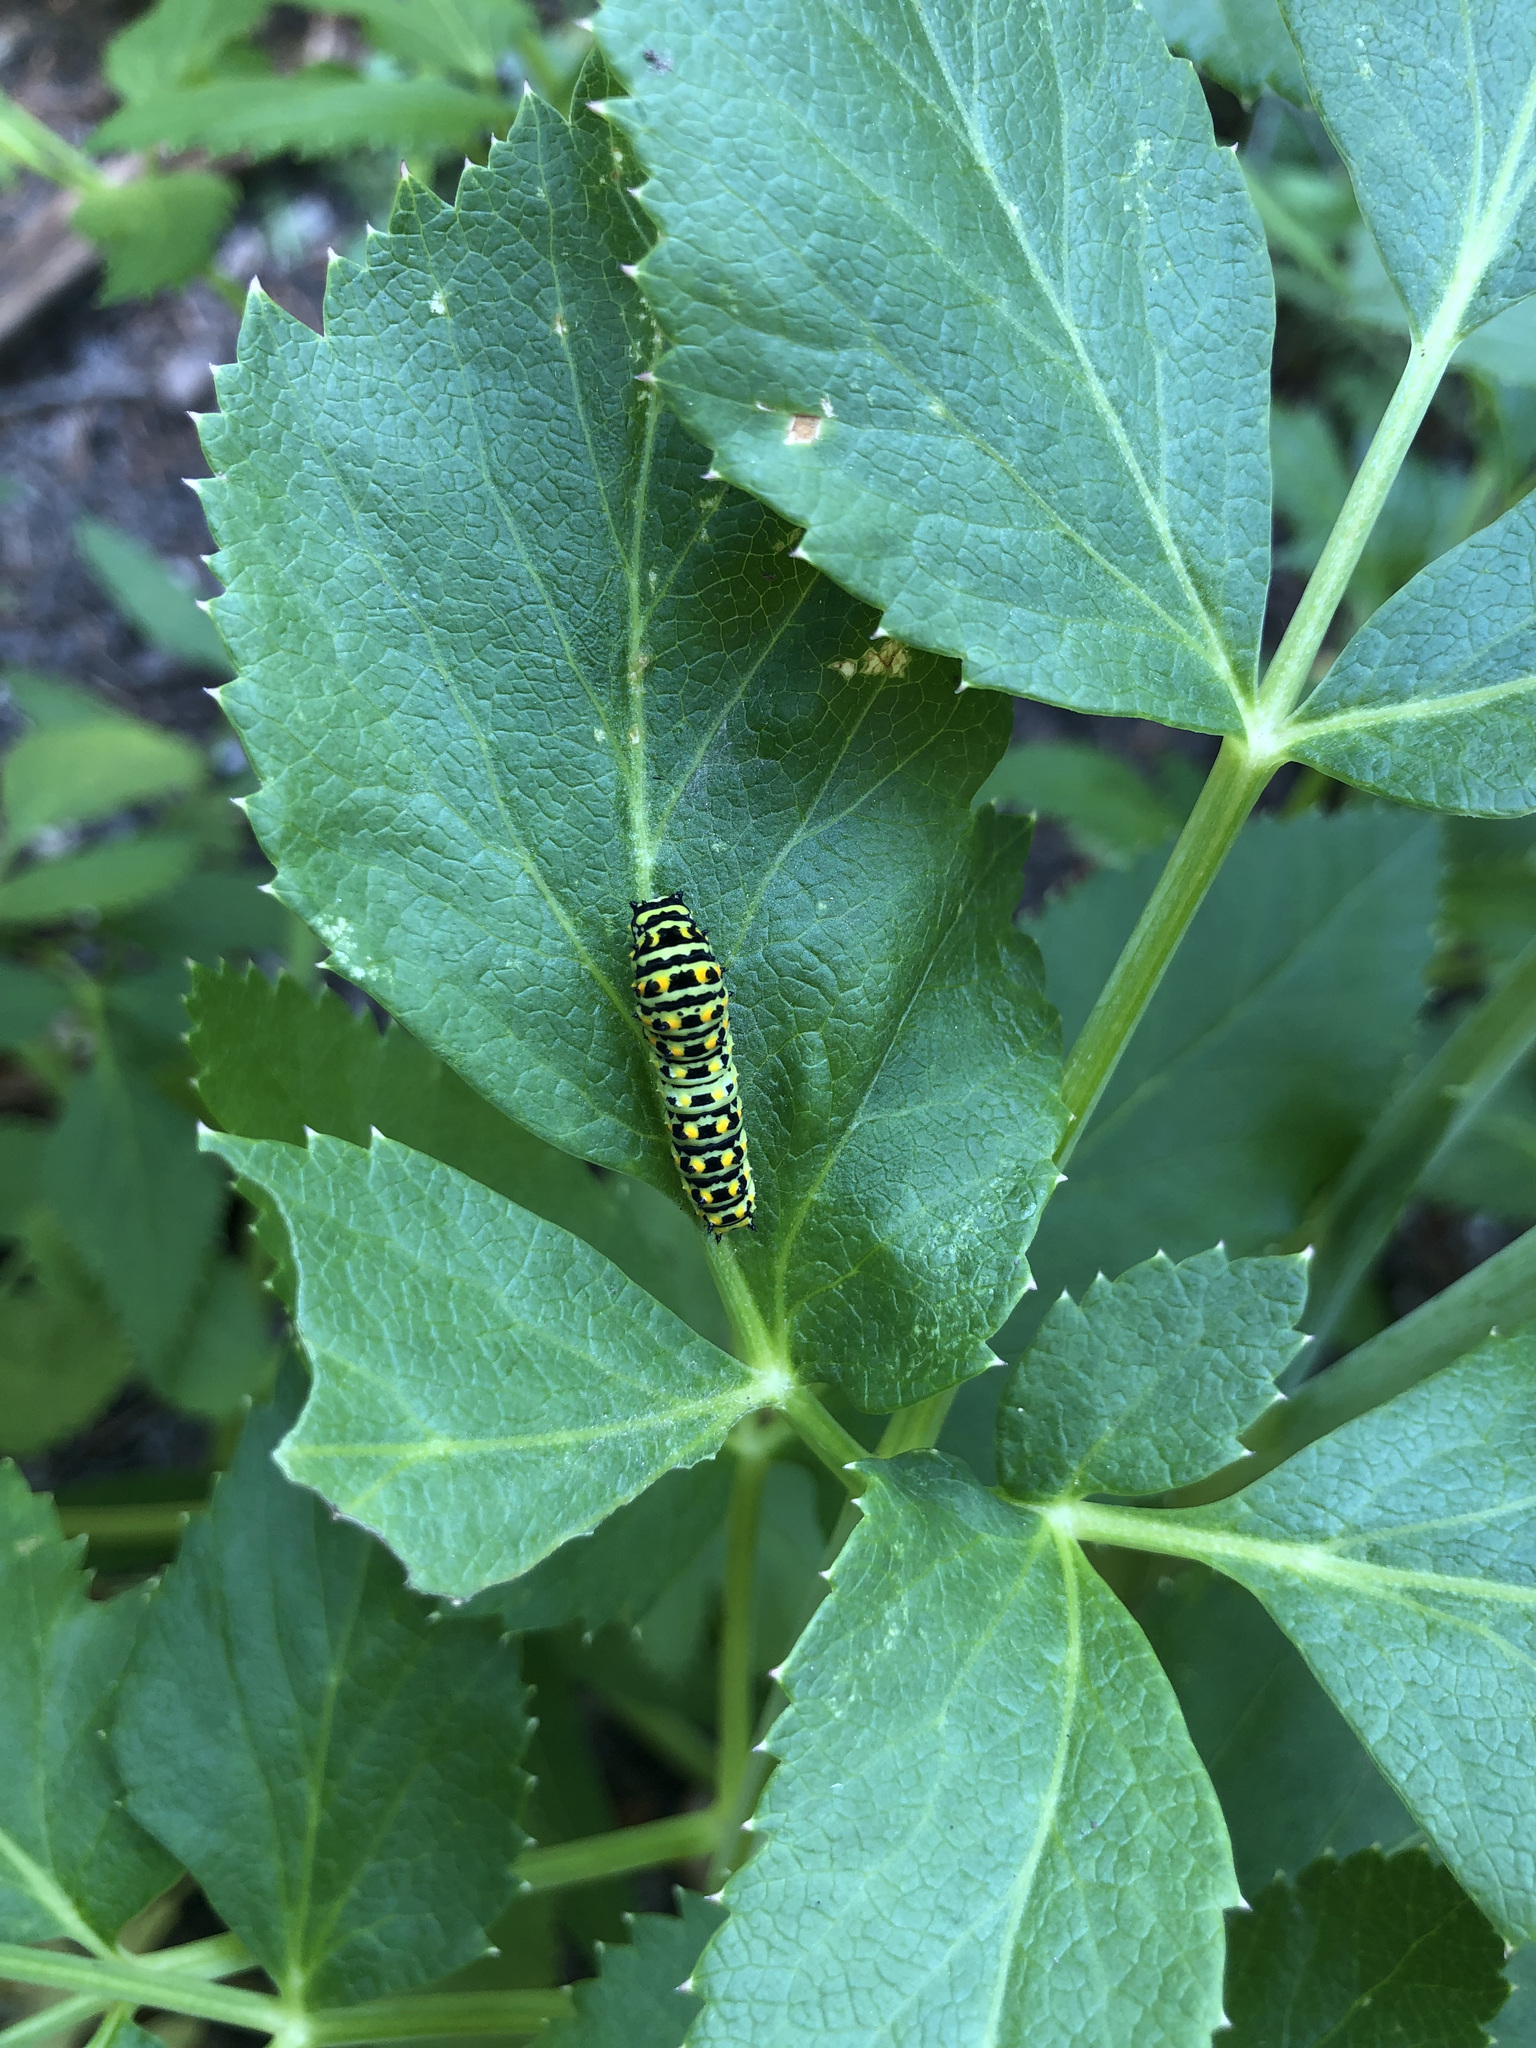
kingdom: Animalia
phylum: Arthropoda
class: Insecta
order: Lepidoptera
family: Papilionidae
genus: Papilio
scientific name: Papilio zelicaon
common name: Anise swallowtail
